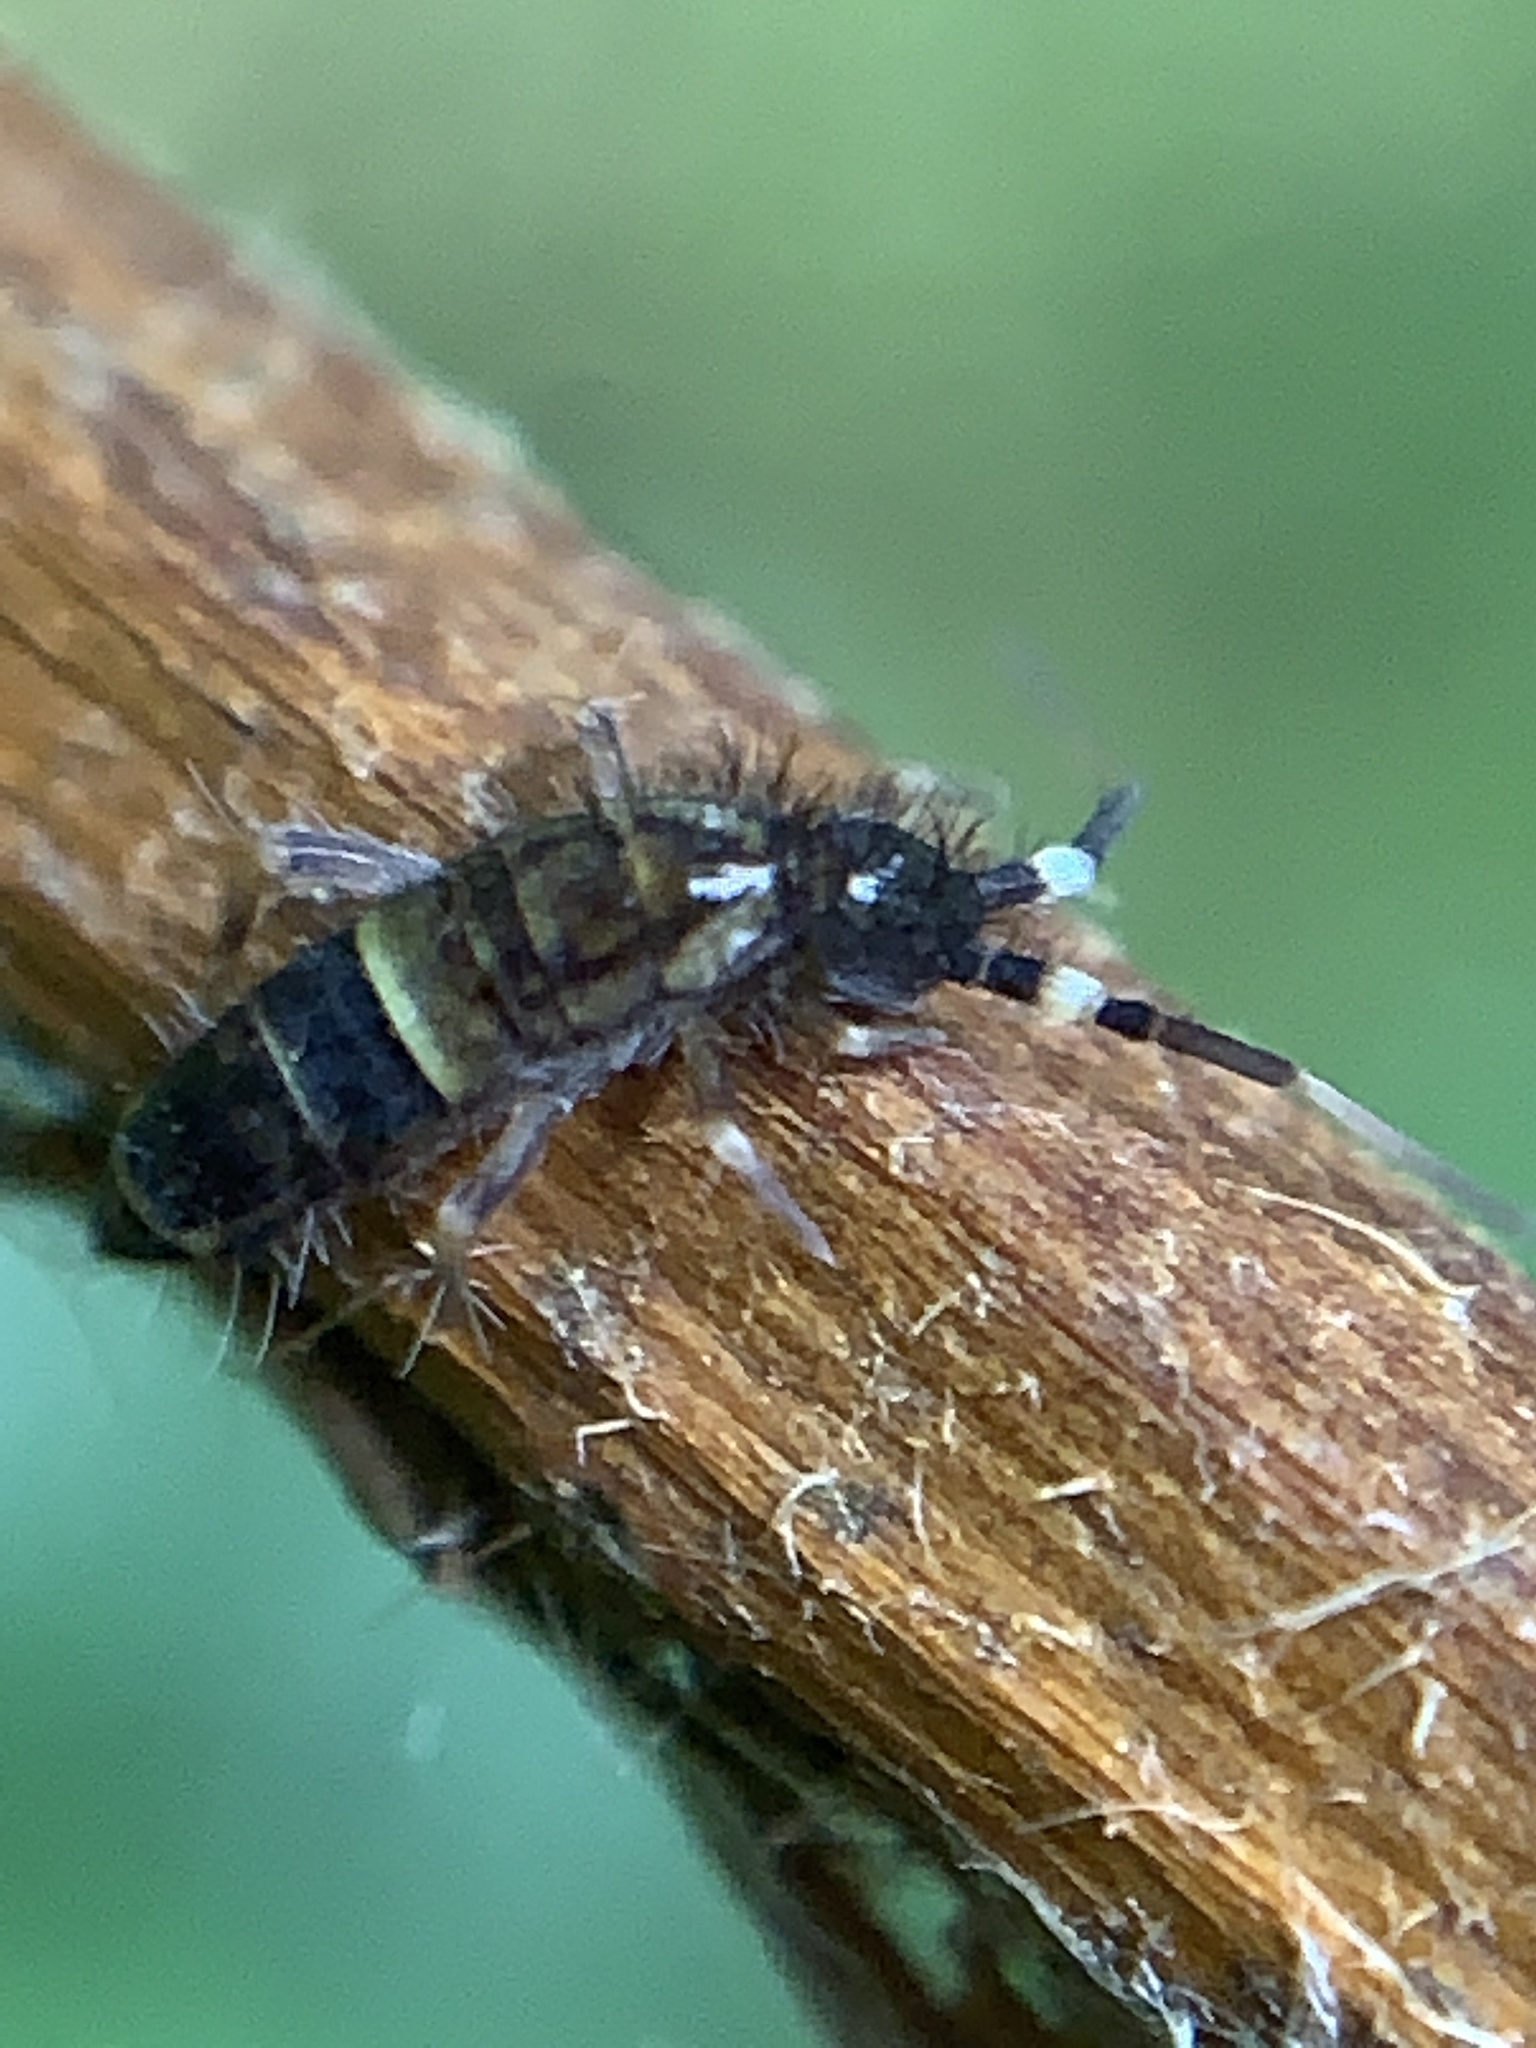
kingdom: Animalia
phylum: Arthropoda
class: Collembola
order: Entomobryomorpha
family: Orchesellidae
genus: Orchesella
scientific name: Orchesella cincta
